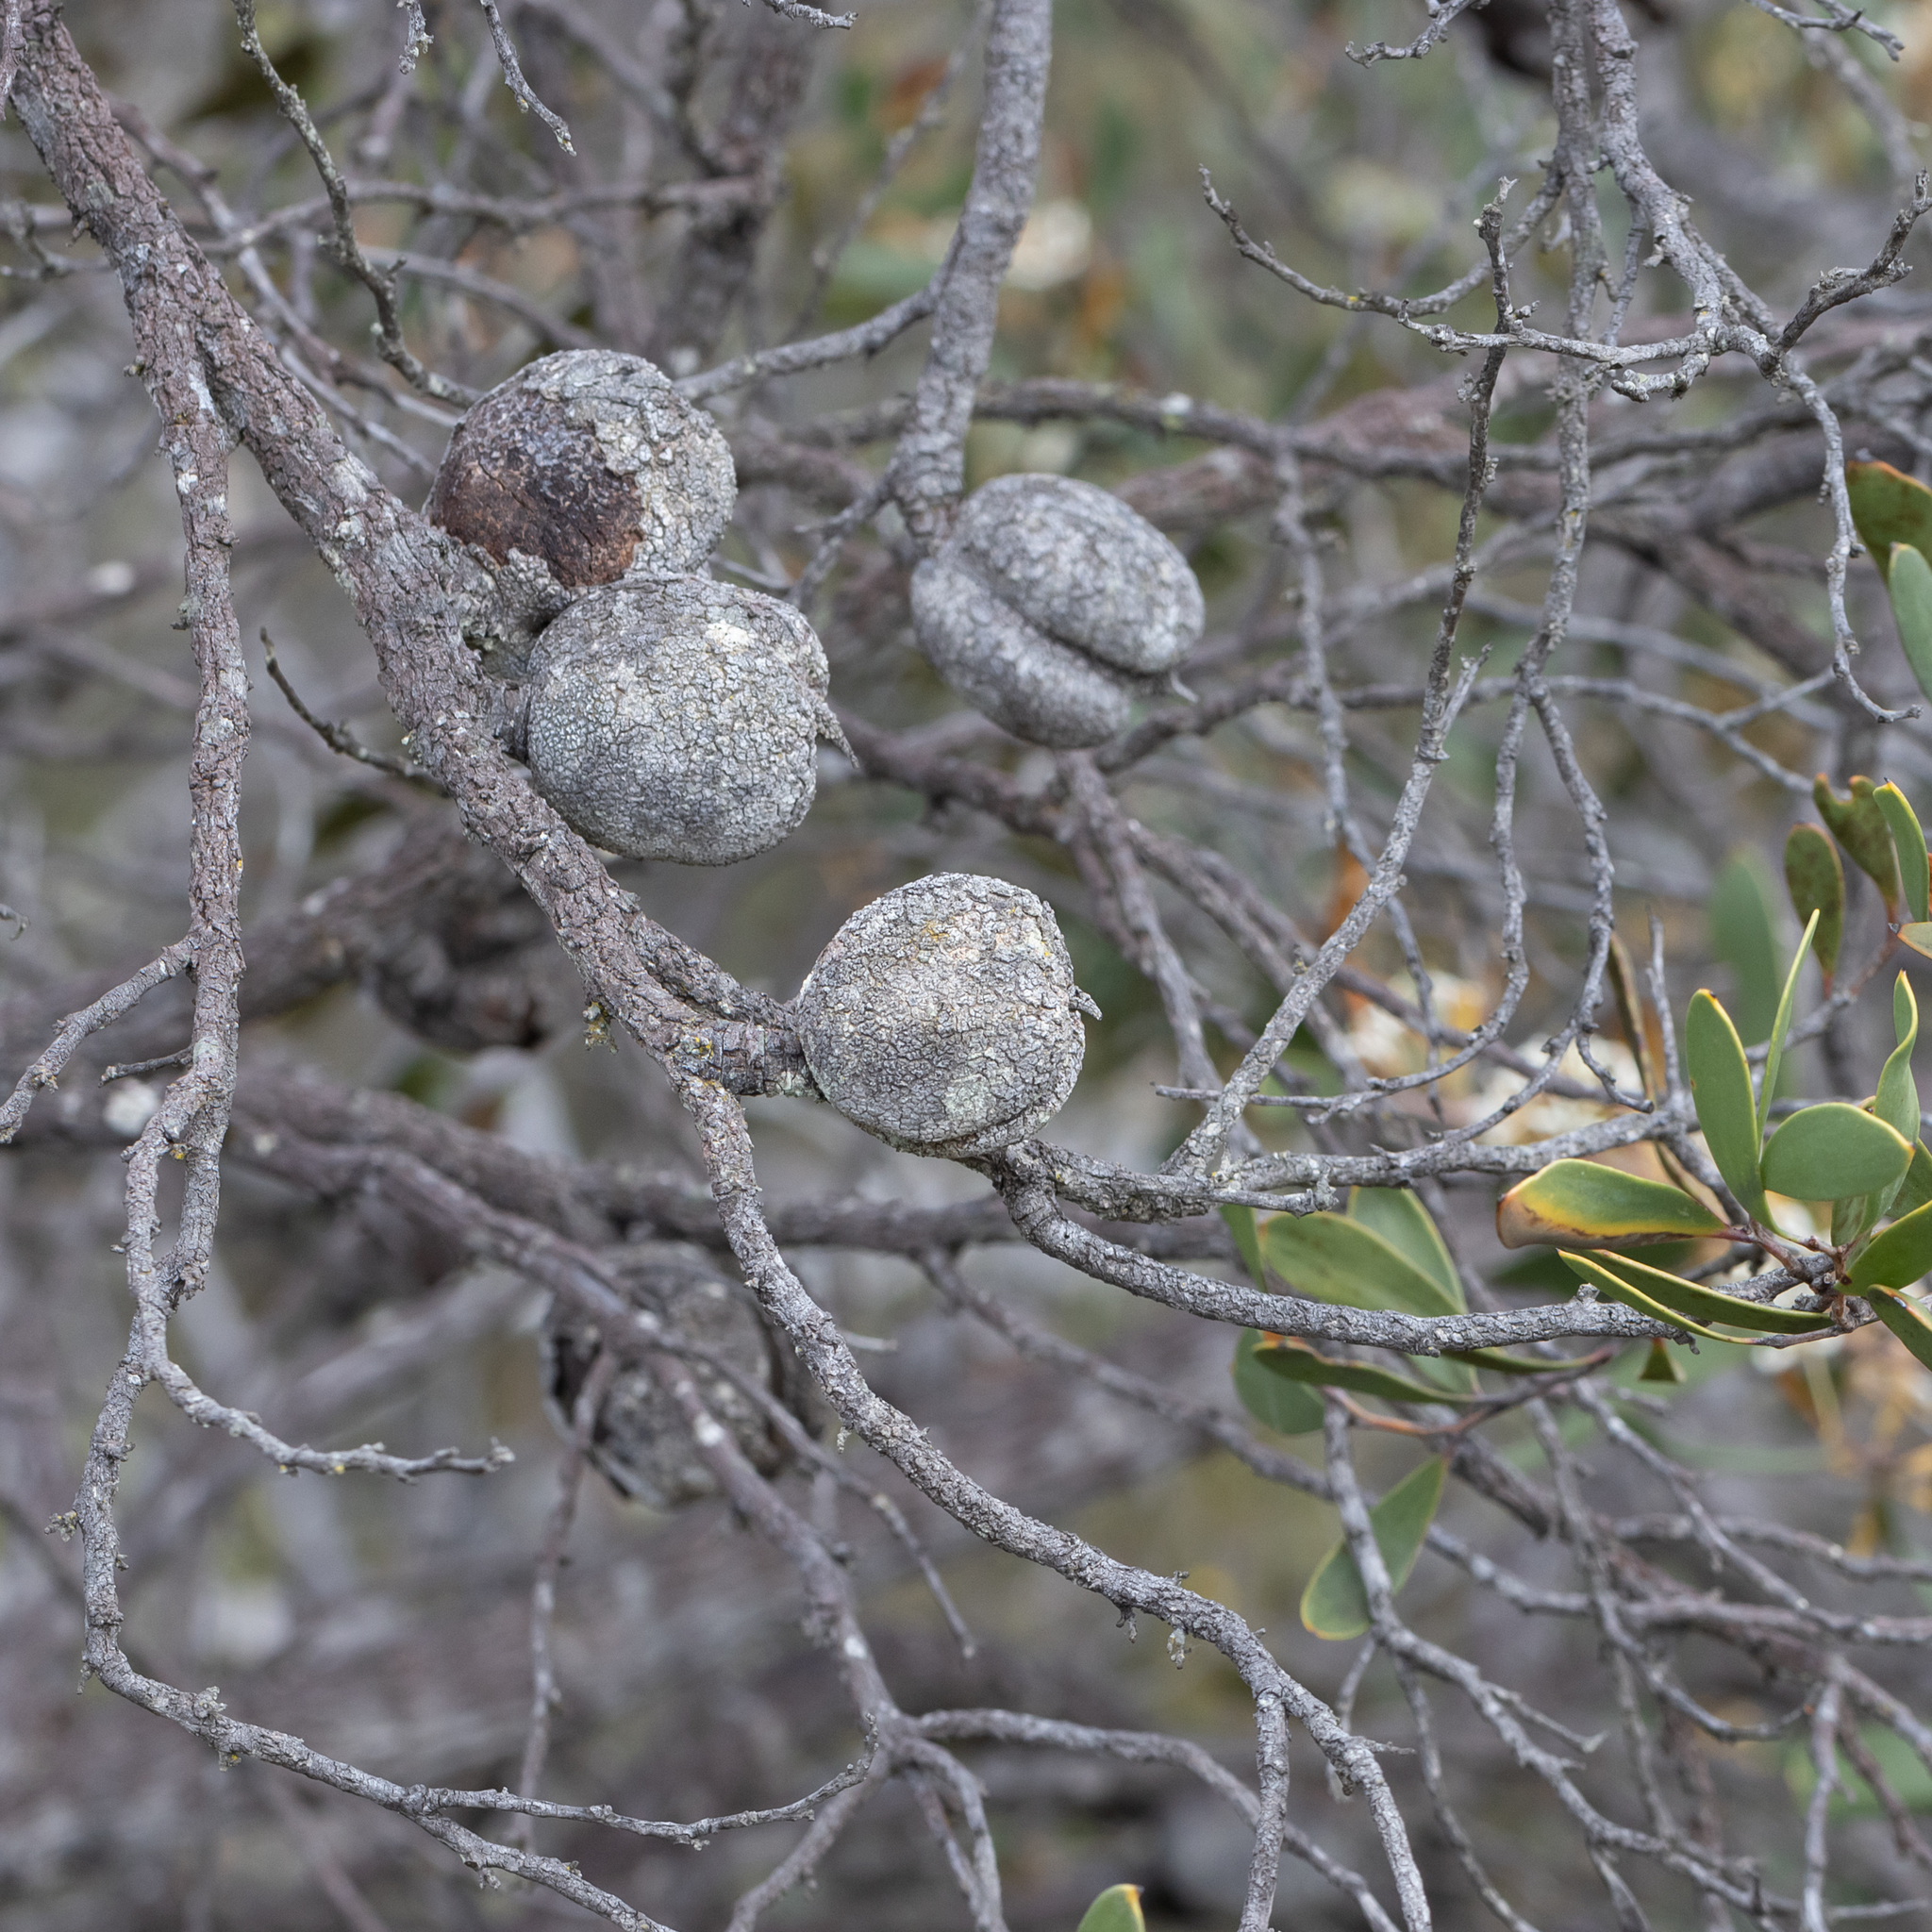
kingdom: Plantae
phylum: Tracheophyta
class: Magnoliopsida
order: Proteales
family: Proteaceae
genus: Hakea
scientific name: Hakea pandanicarpa
